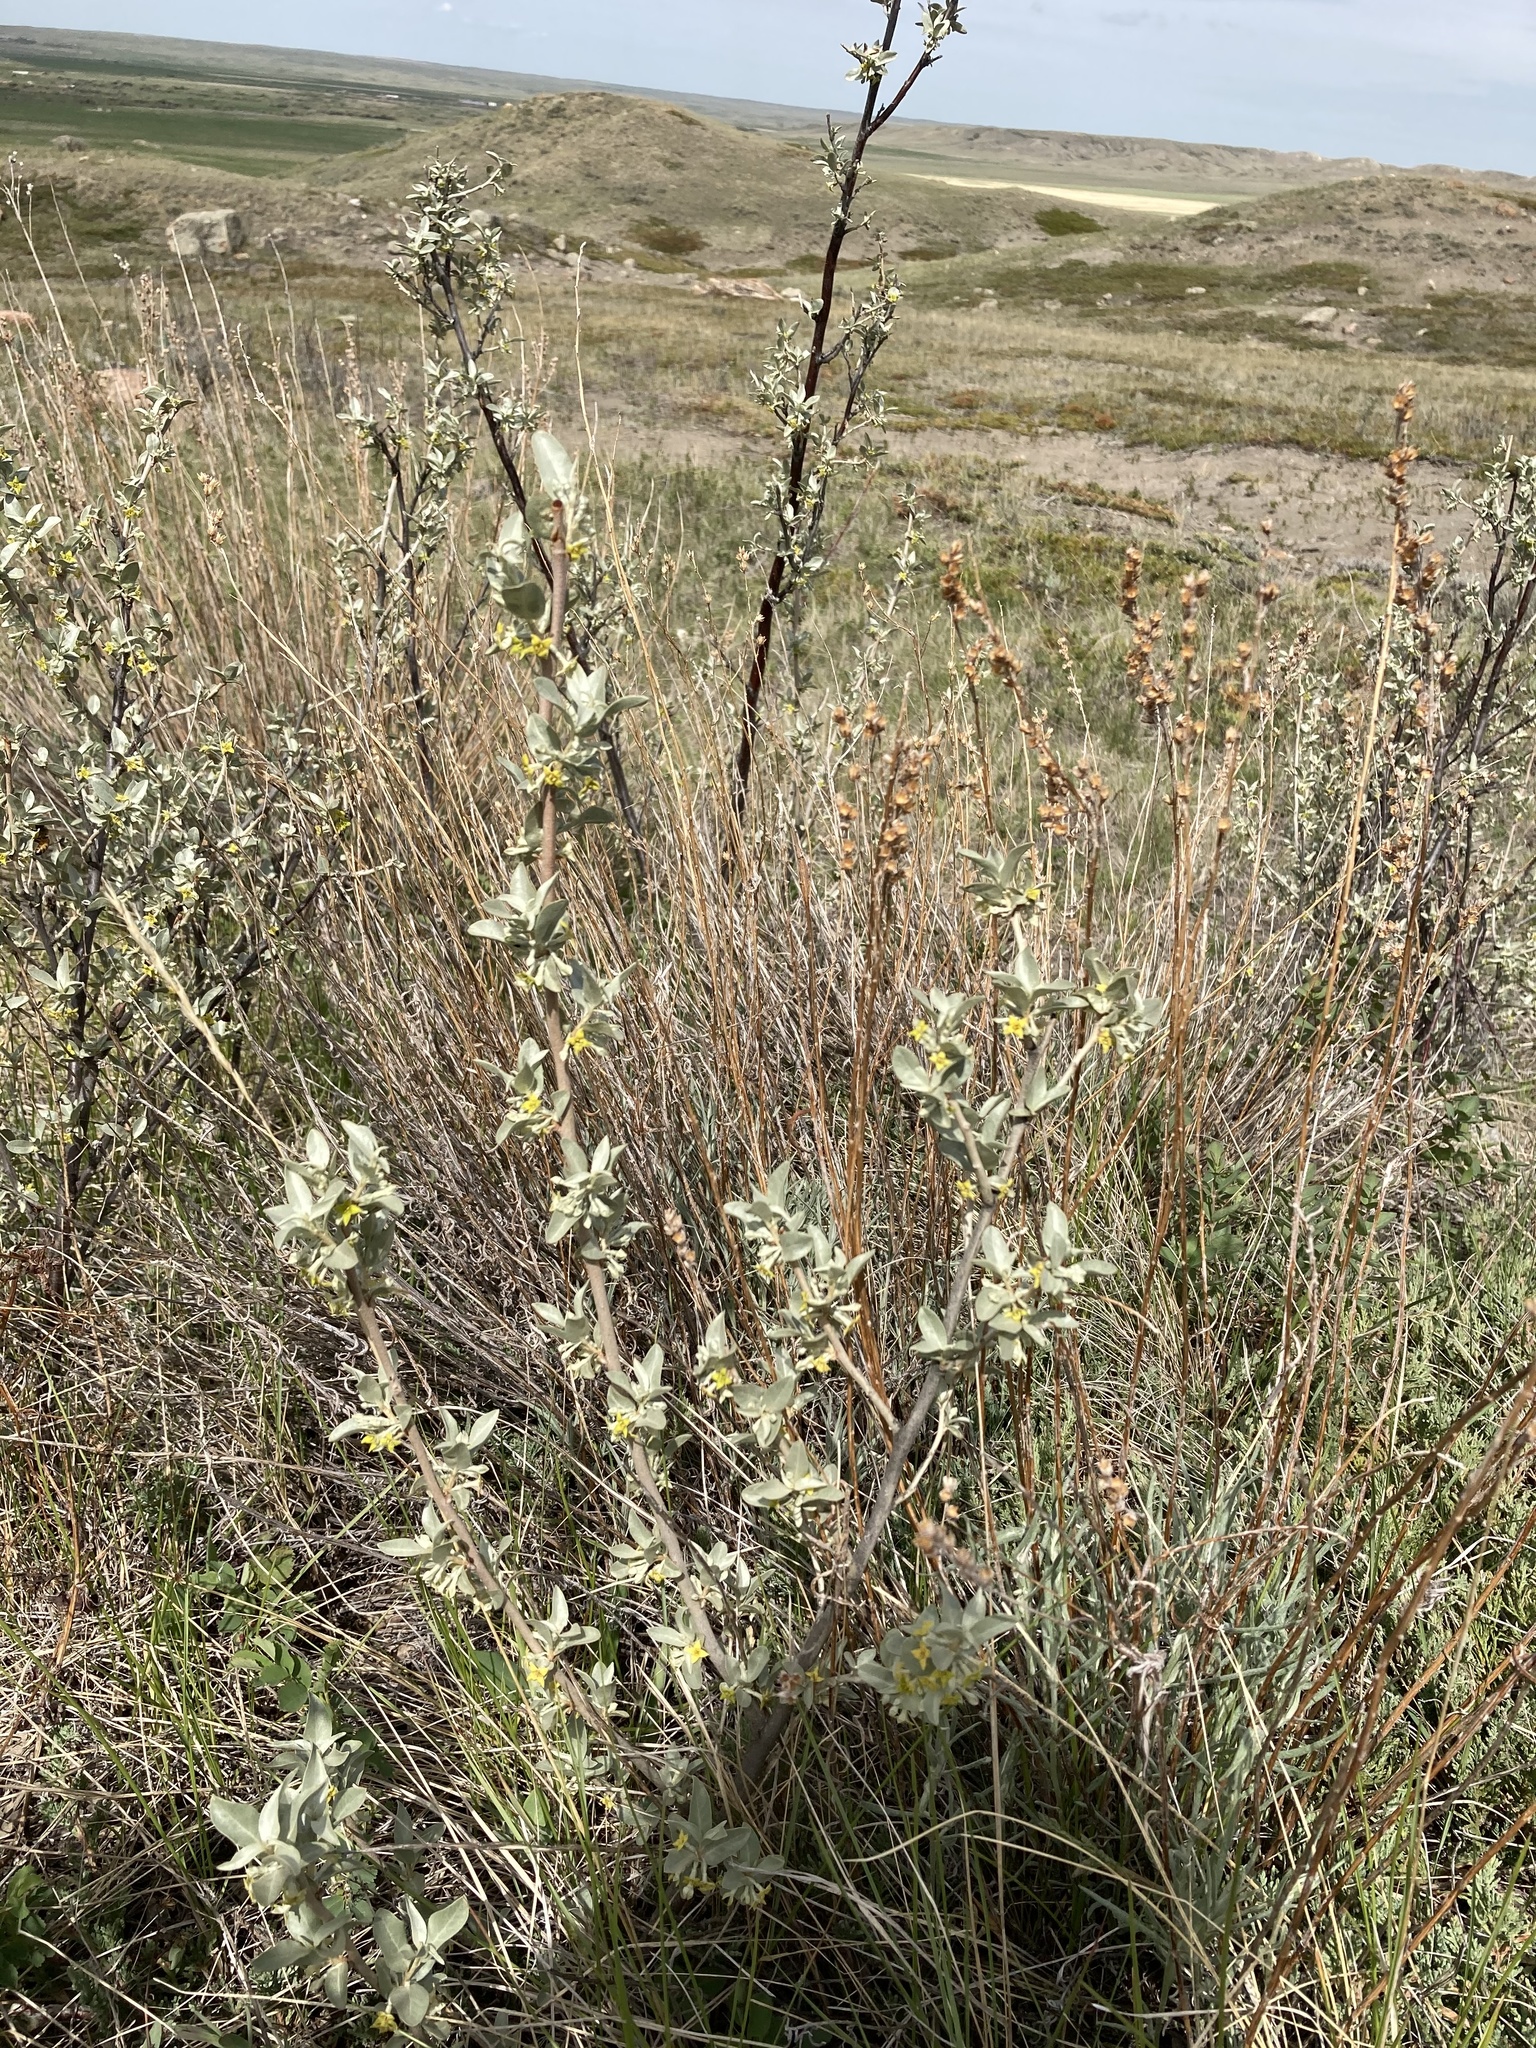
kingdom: Plantae
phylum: Tracheophyta
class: Magnoliopsida
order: Rosales
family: Elaeagnaceae
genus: Elaeagnus
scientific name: Elaeagnus commutata
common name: Silverberry
